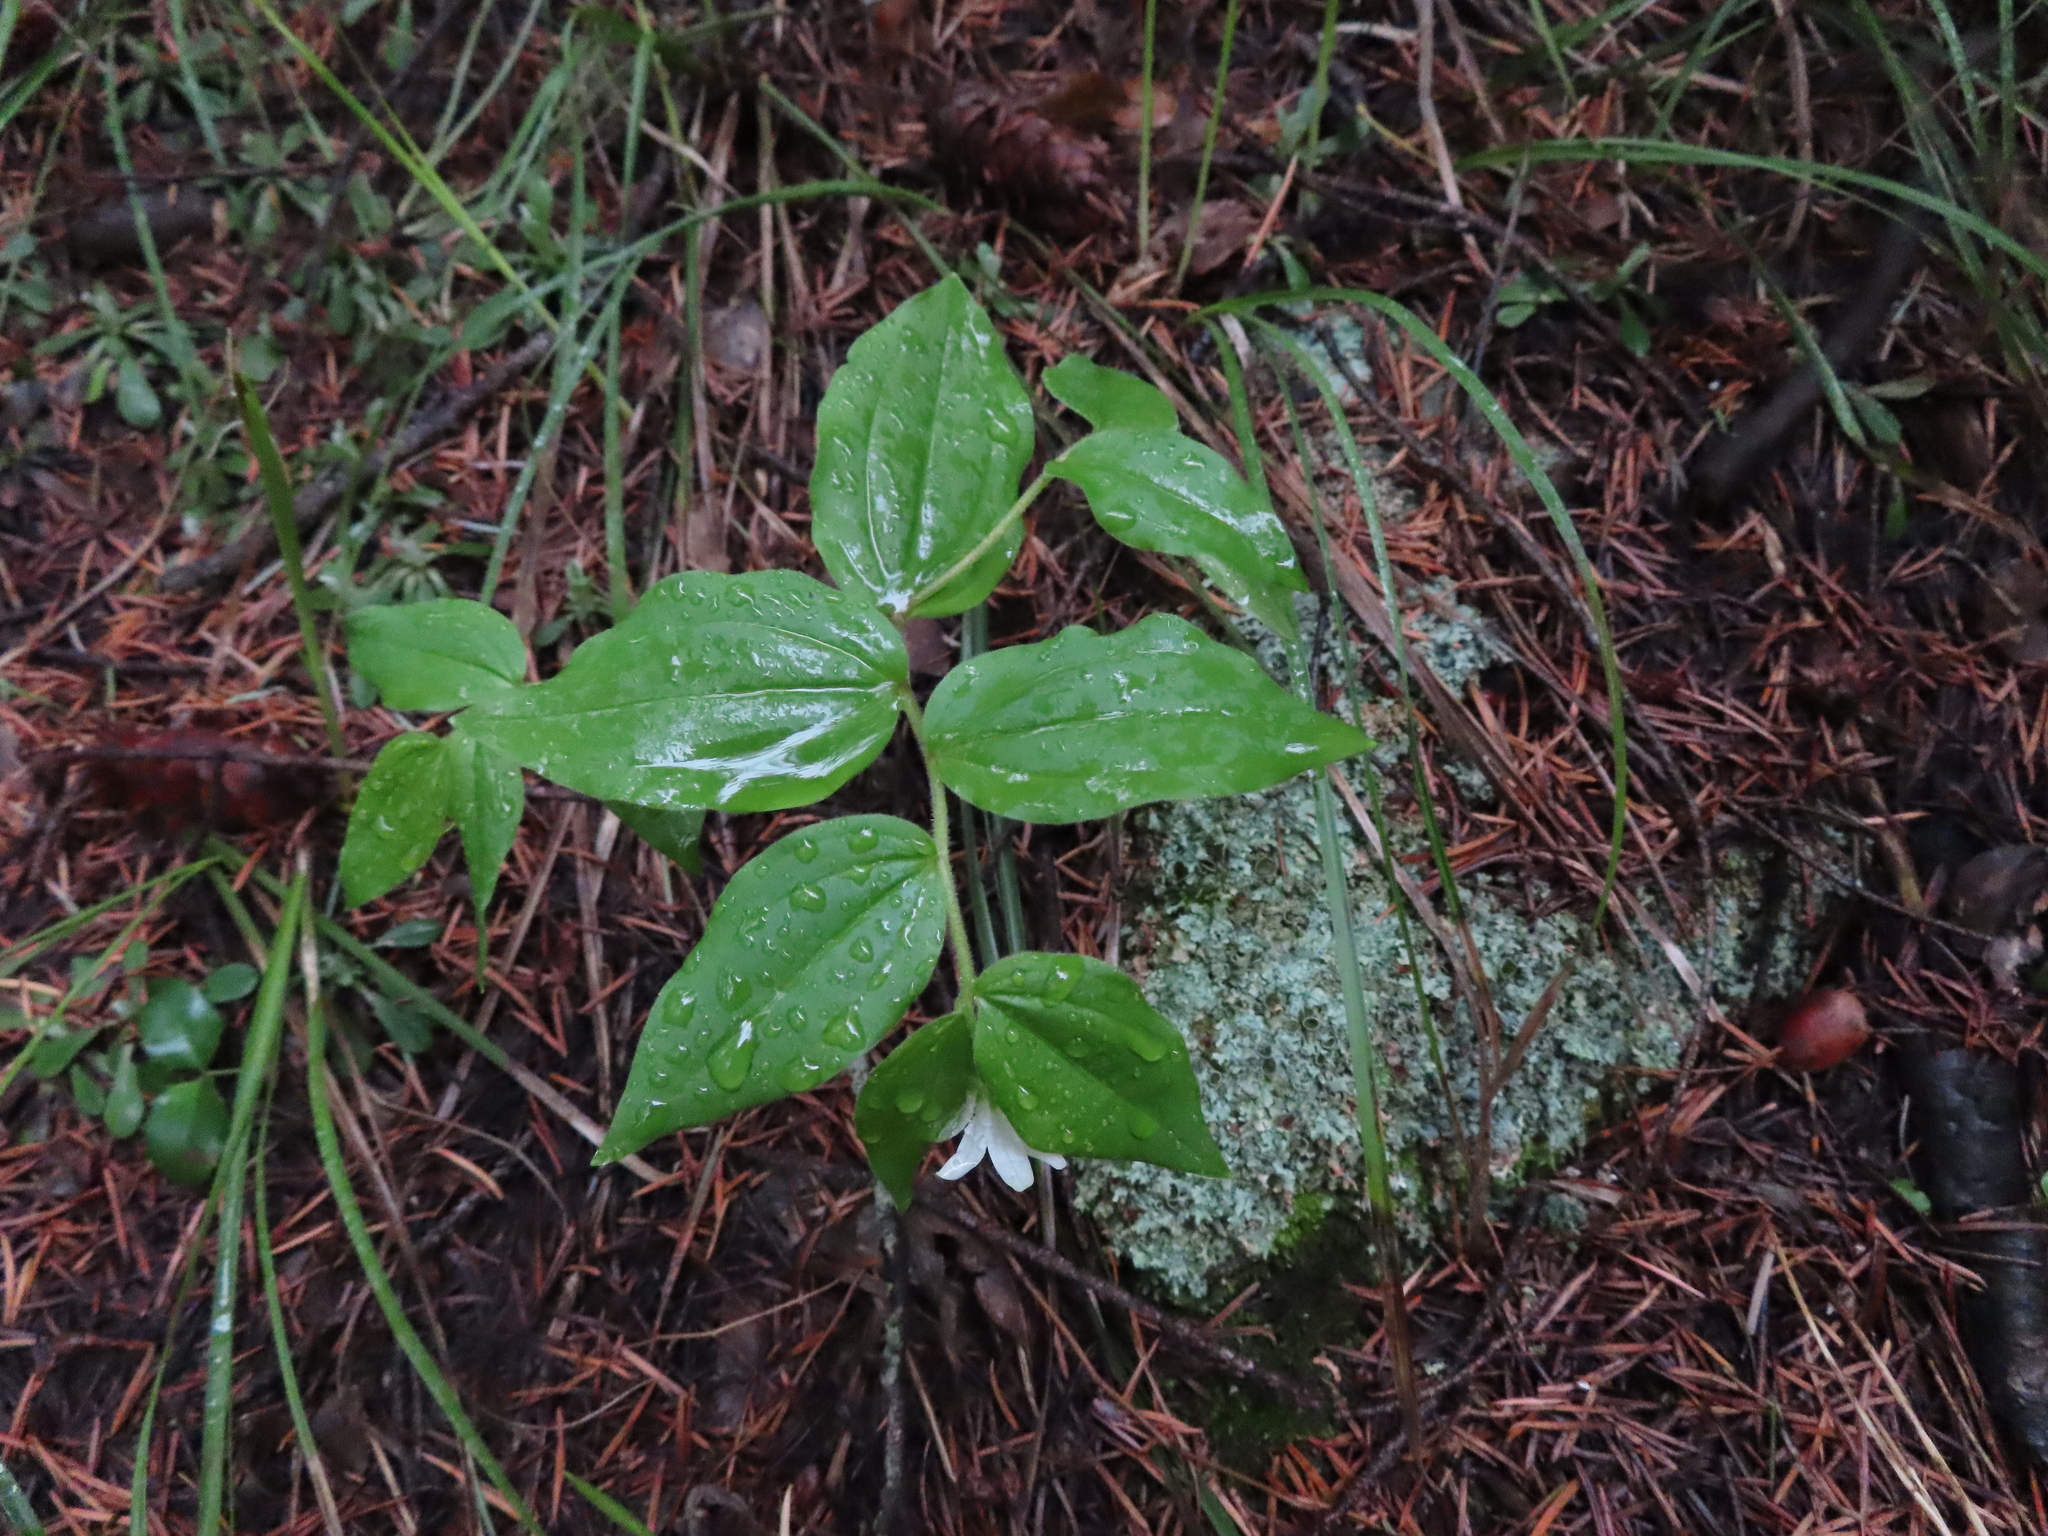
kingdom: Plantae
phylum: Tracheophyta
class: Liliopsida
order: Liliales
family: Liliaceae
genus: Prosartes
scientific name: Prosartes trachycarpa
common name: Rough-fruit fairy-bells
